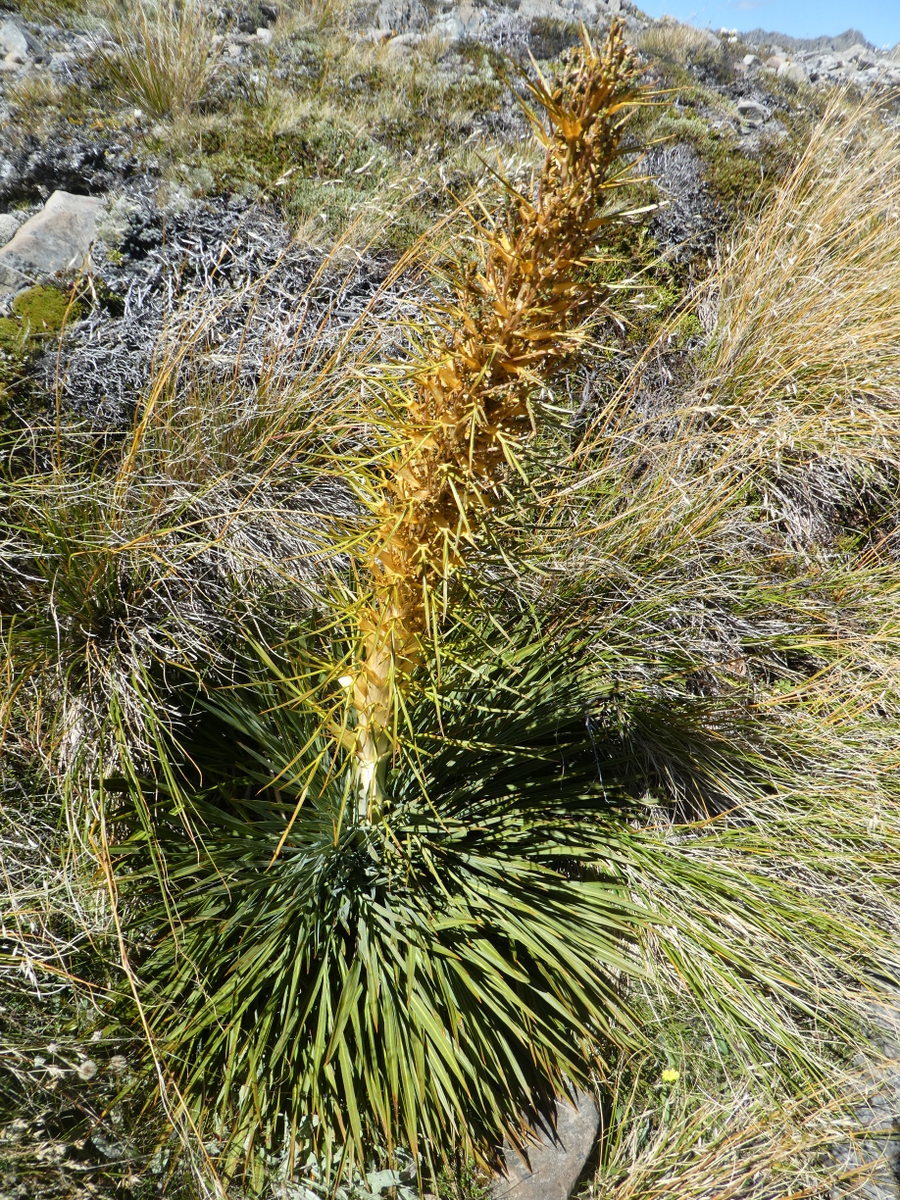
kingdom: Plantae
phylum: Tracheophyta
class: Magnoliopsida
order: Apiales
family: Apiaceae
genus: Aciphylla
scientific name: Aciphylla colensoi
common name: Colenso's spaniard
